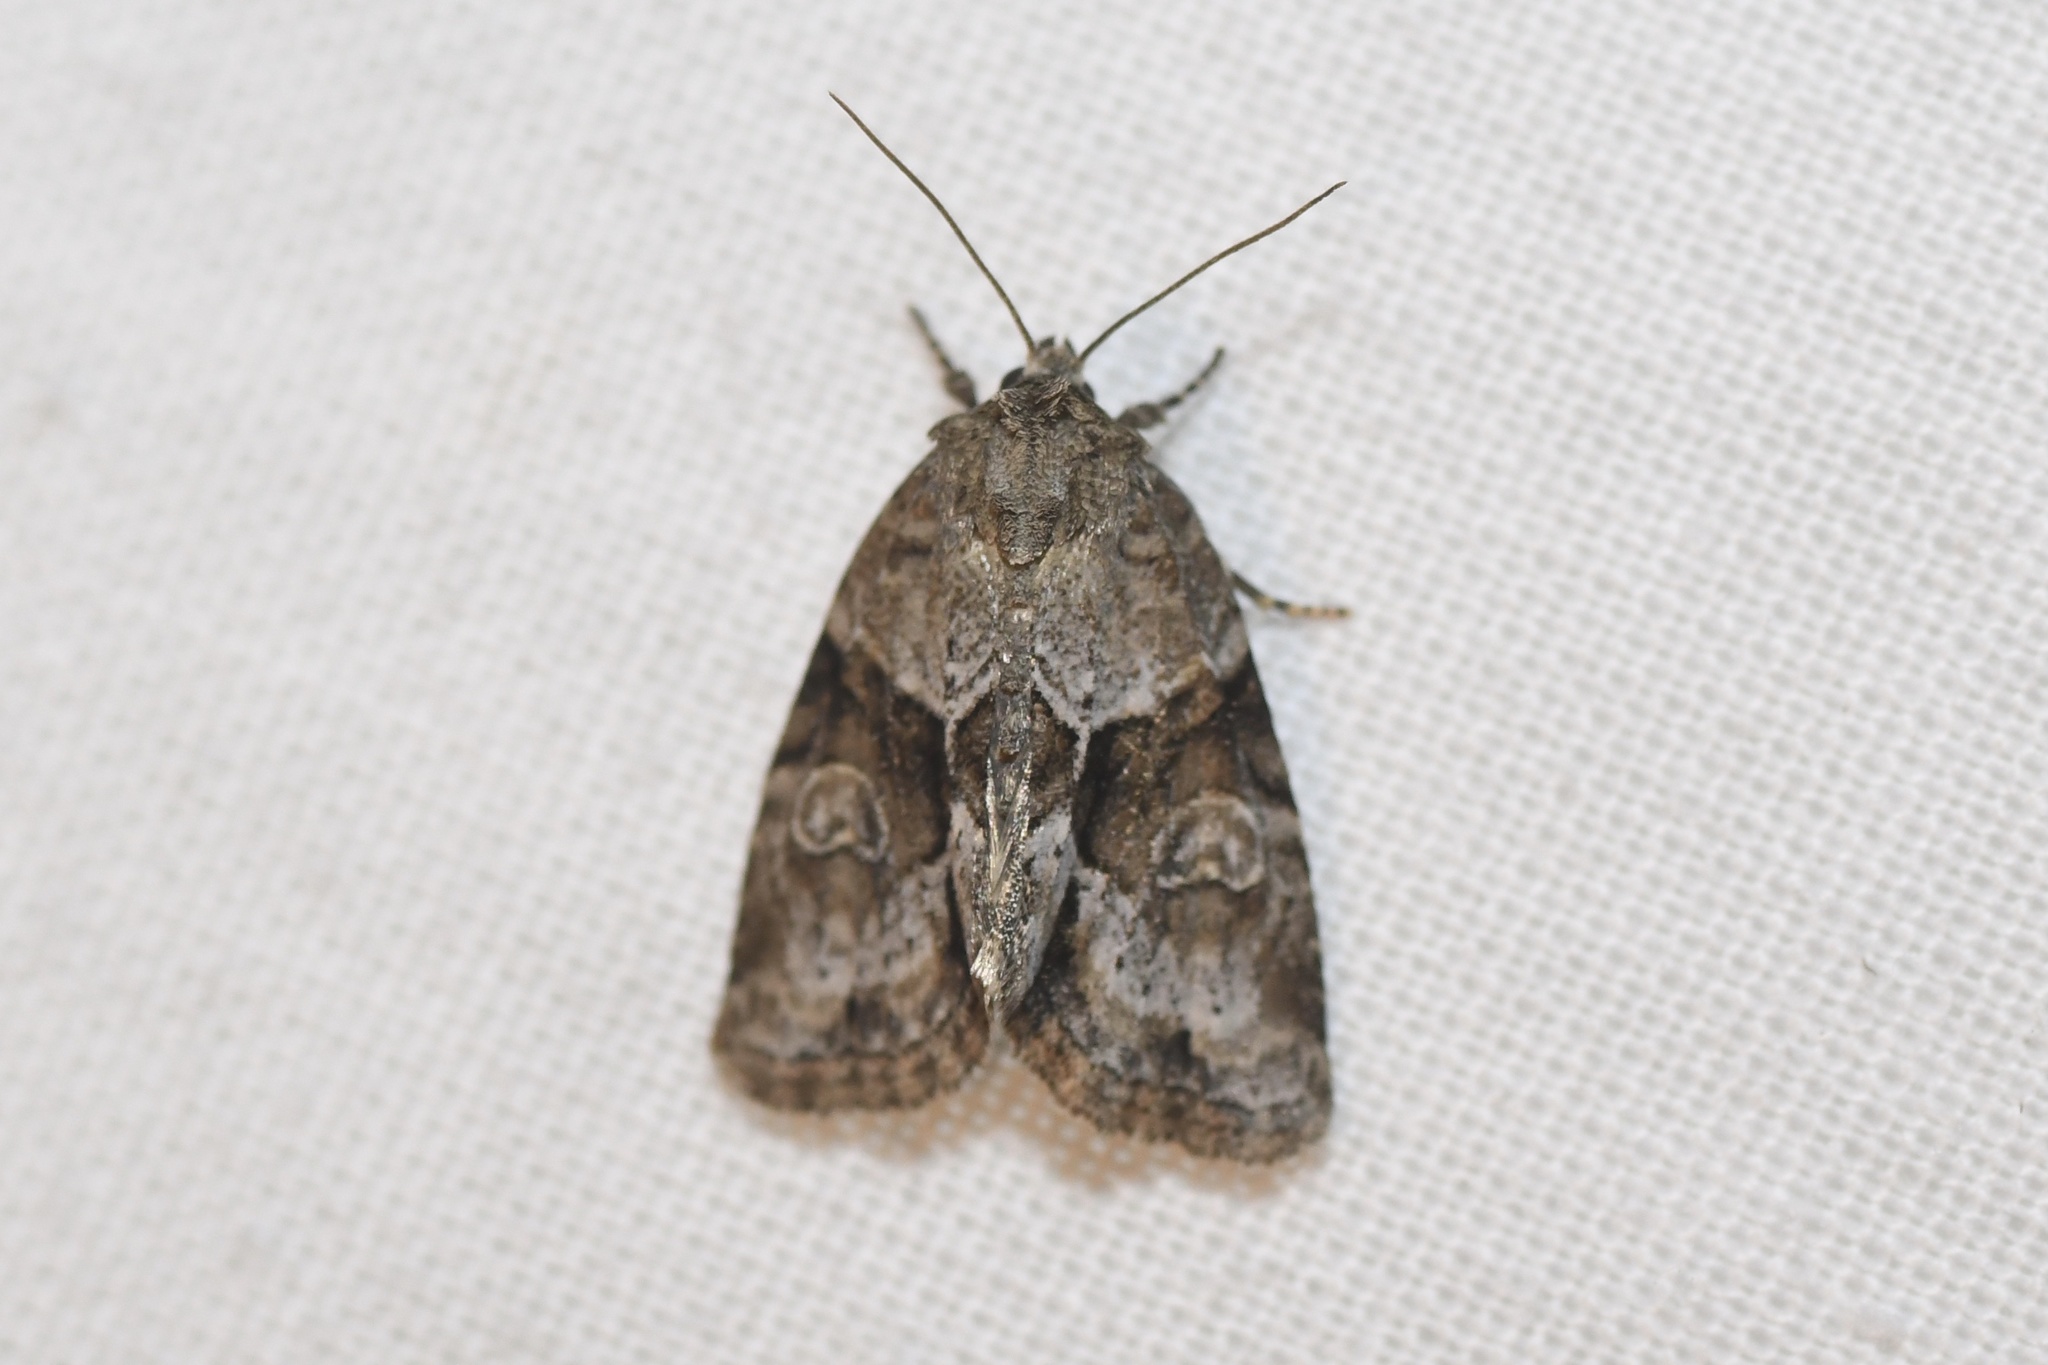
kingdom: Animalia
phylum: Arthropoda
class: Insecta
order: Lepidoptera
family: Noctuidae
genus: Neoligia
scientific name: Neoligia exhausta
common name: Exhausted brocade
